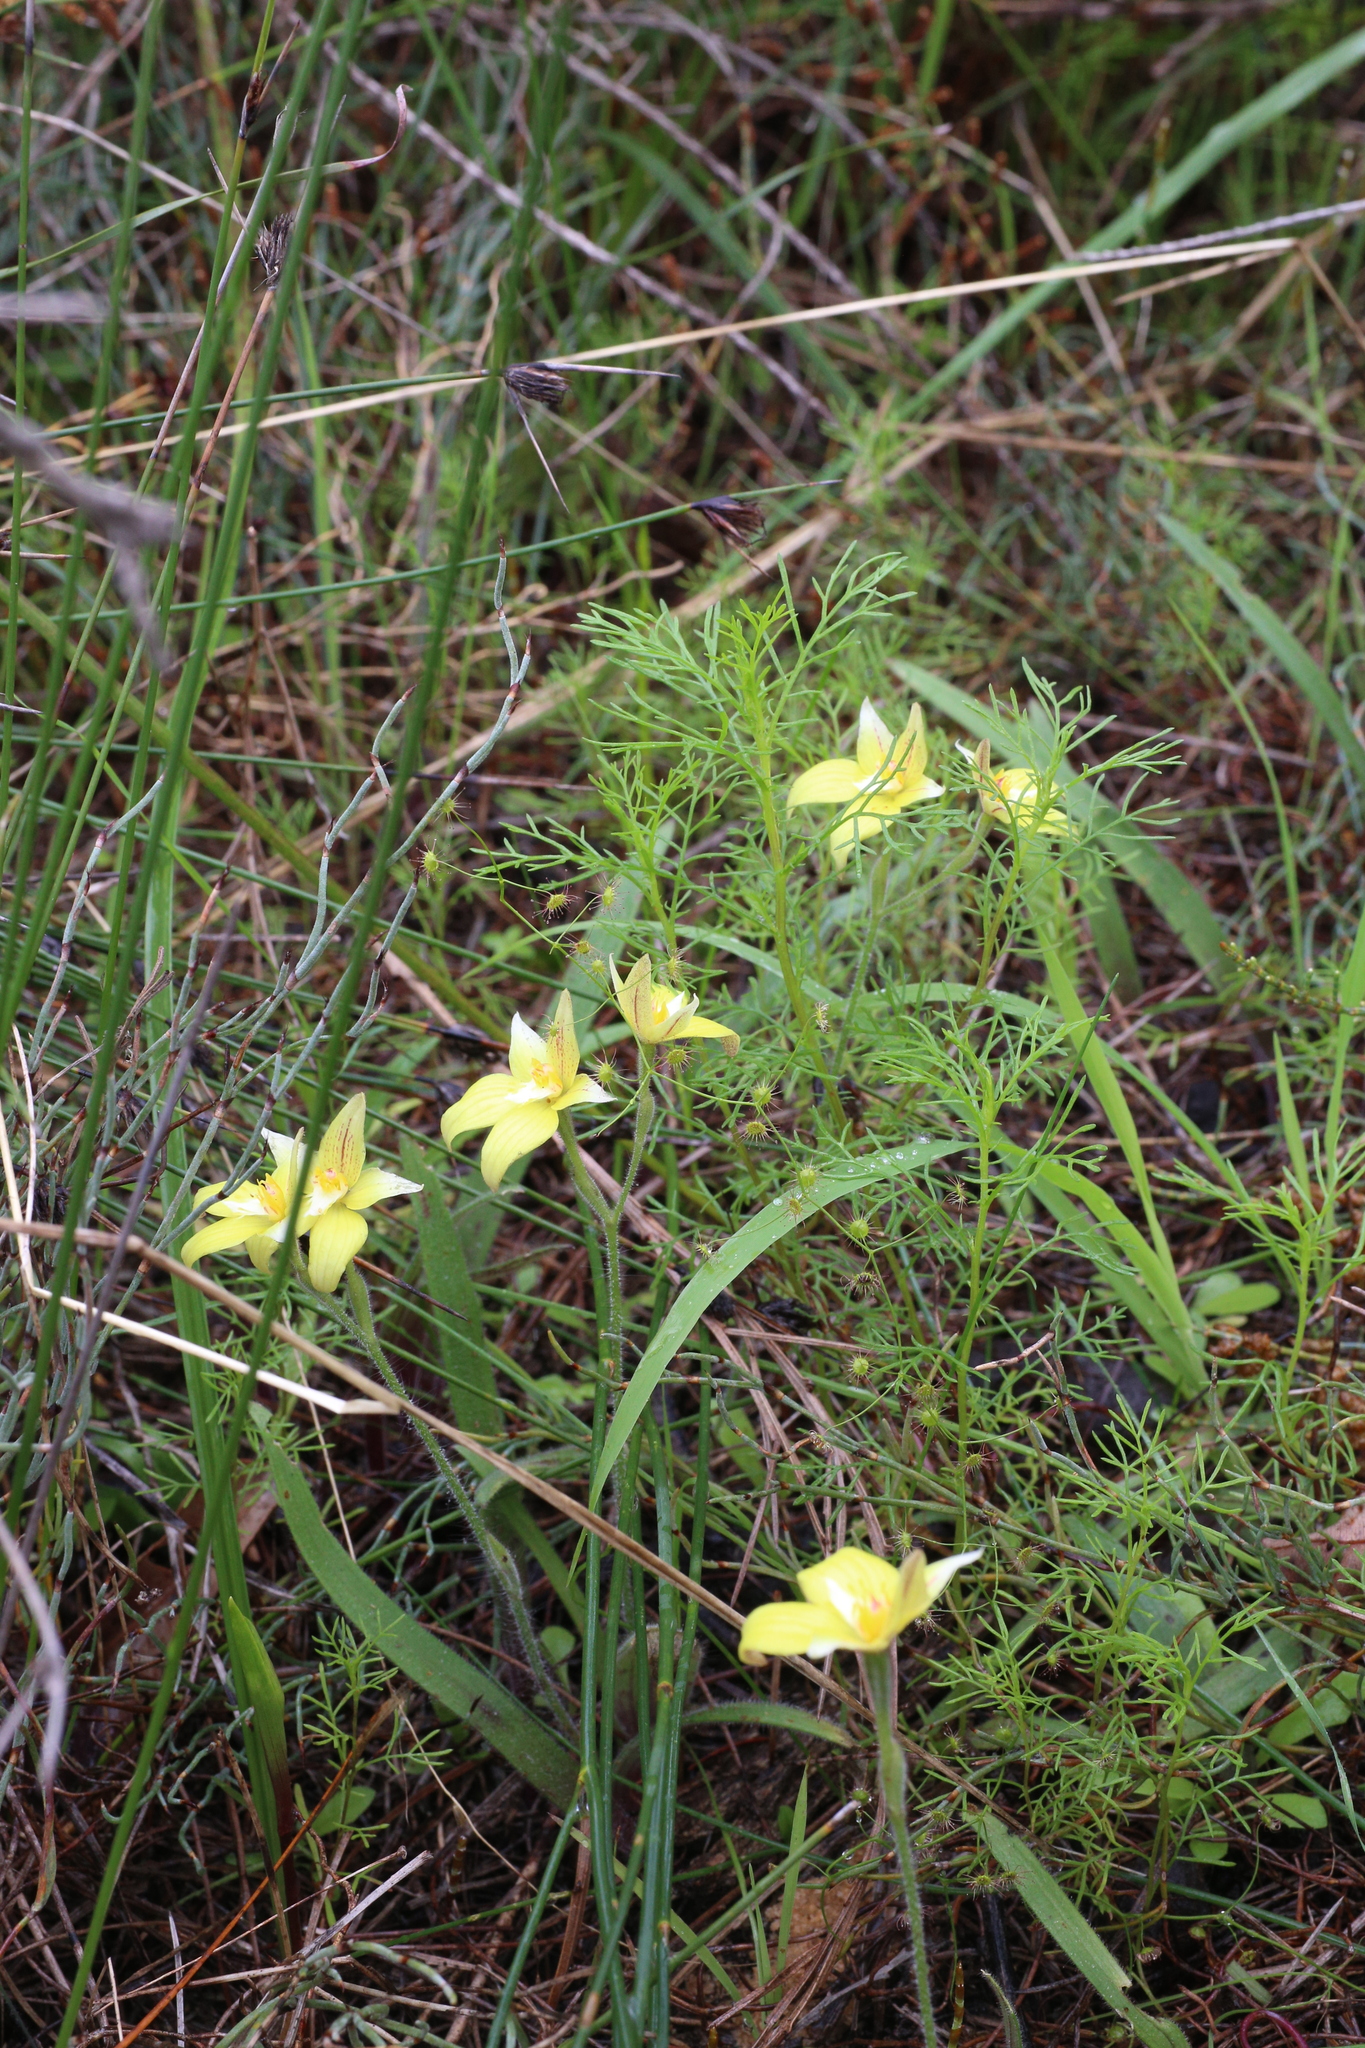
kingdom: Plantae
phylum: Tracheophyta
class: Liliopsida
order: Asparagales
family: Orchidaceae
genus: Caladenia
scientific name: Caladenia flava
